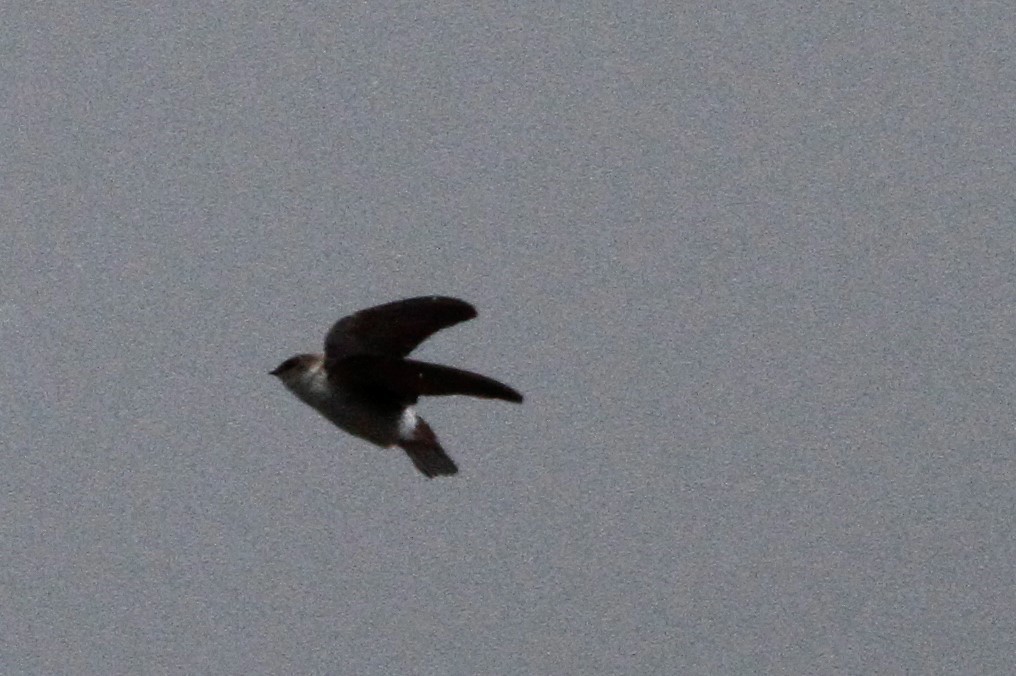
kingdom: Animalia
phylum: Chordata
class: Aves
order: Passeriformes
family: Hirundinidae
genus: Tachycineta
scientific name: Tachycineta thalassina
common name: Violet-green swallow
